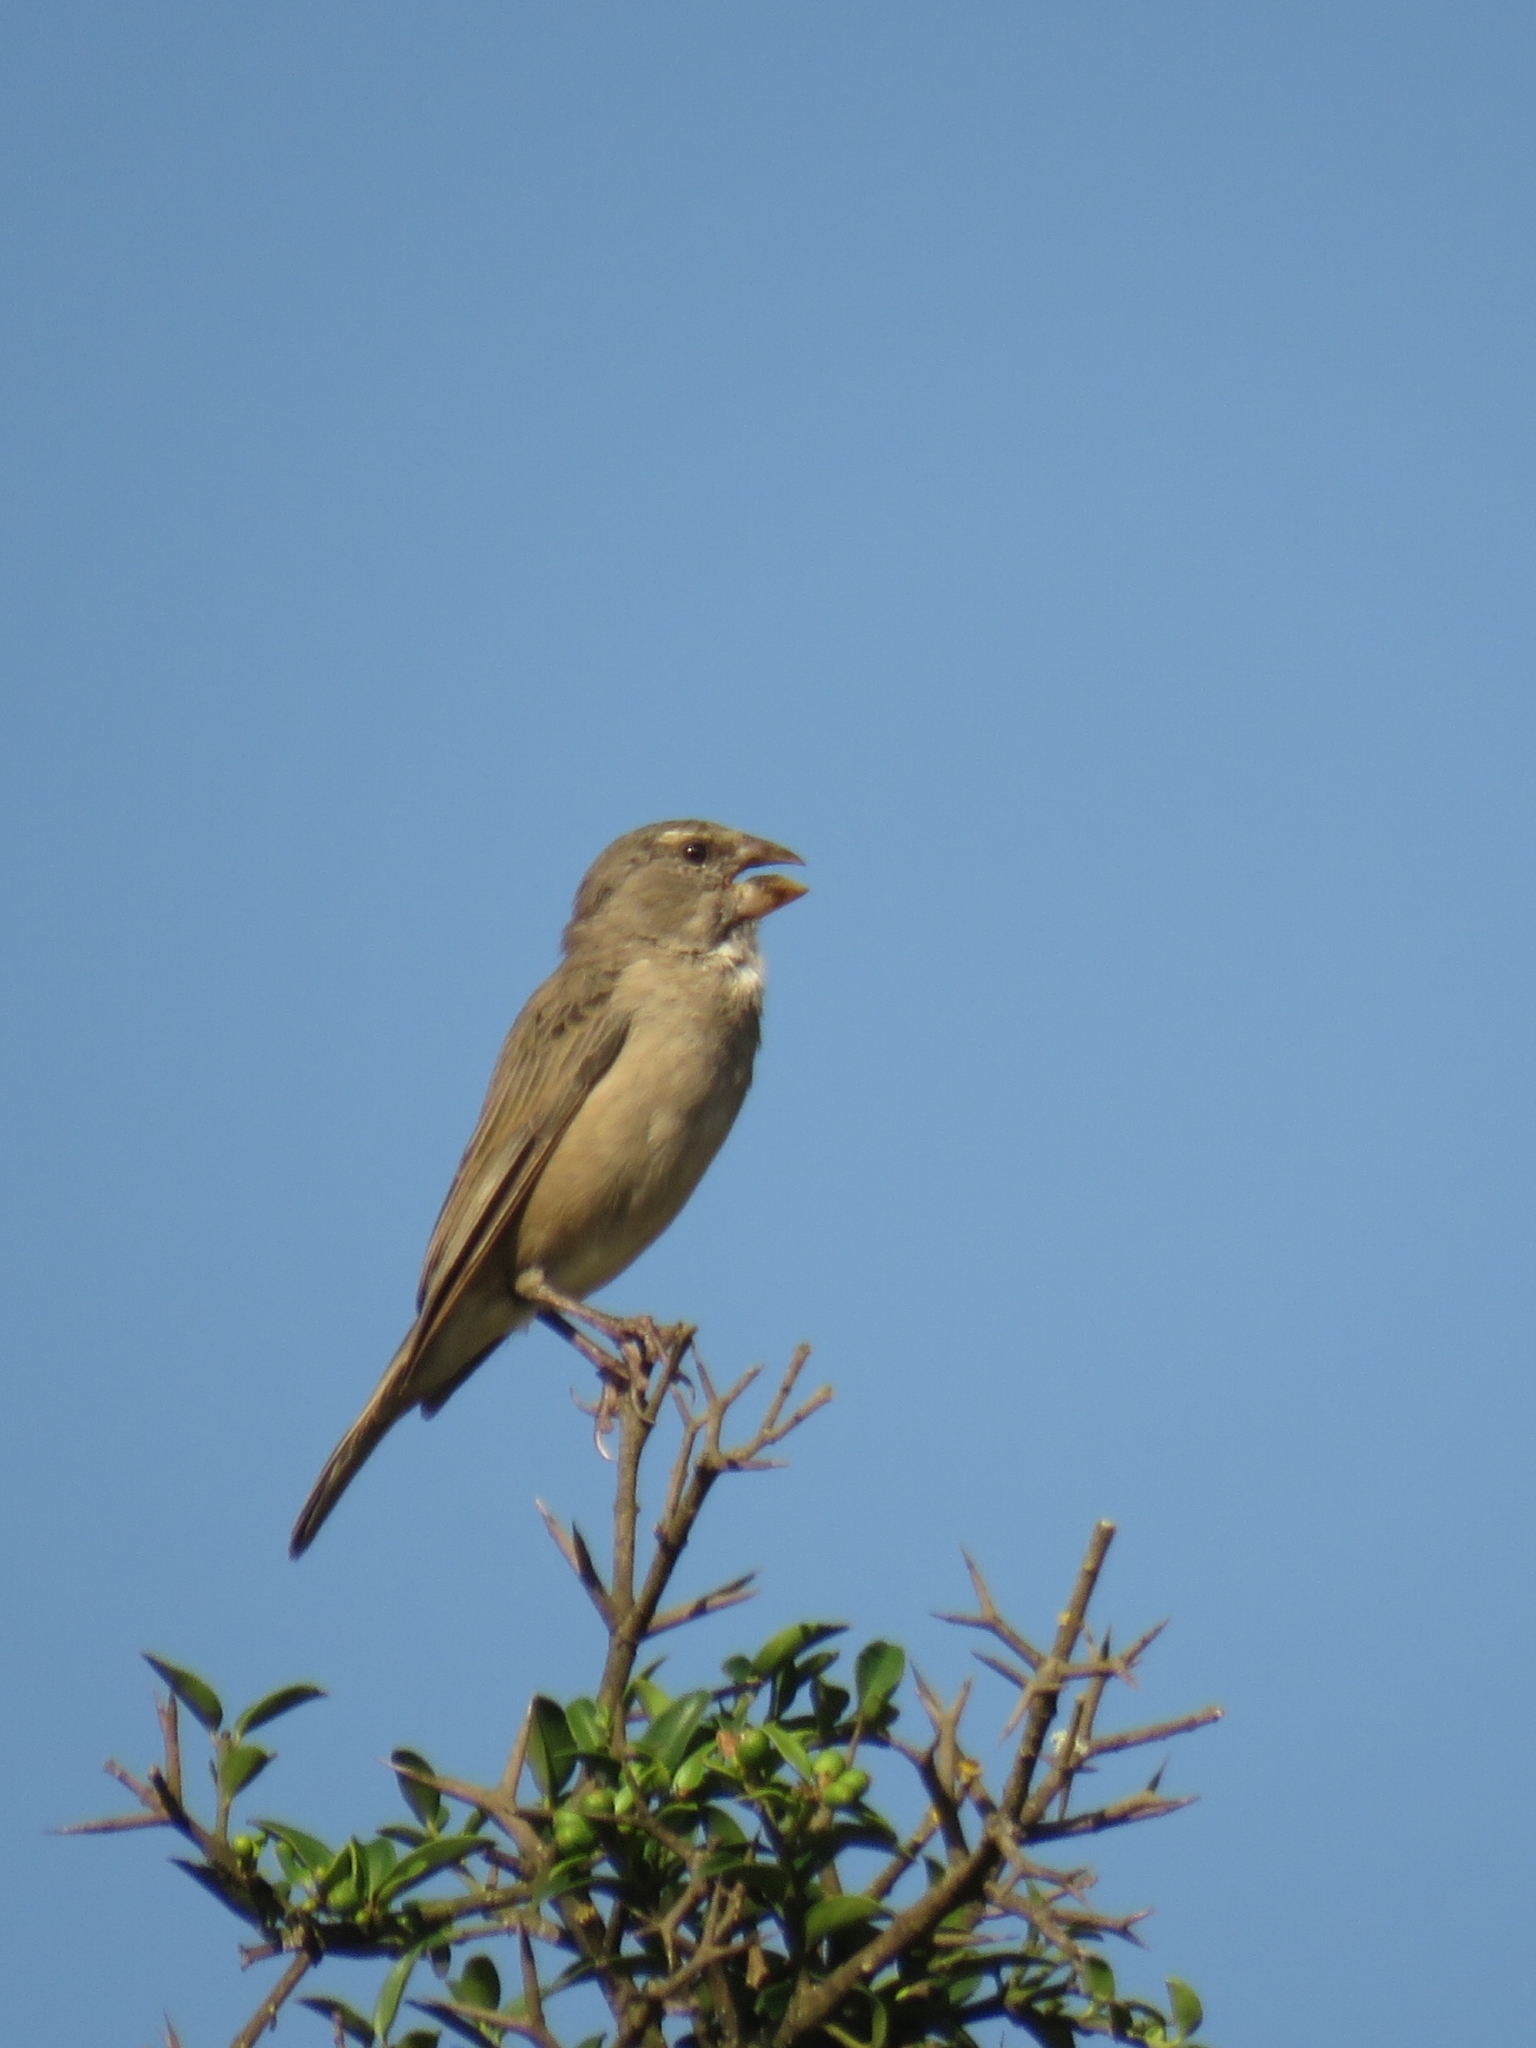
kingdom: Animalia
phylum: Chordata
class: Aves
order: Passeriformes
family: Fringillidae
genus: Crithagra
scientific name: Crithagra albogularis
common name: White-throated canary
